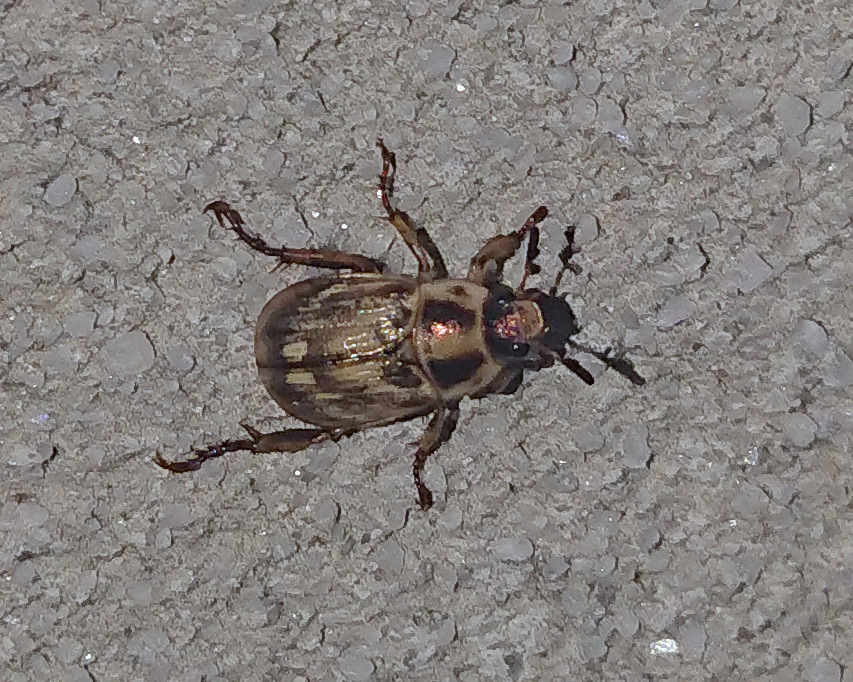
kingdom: Animalia
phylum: Arthropoda
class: Insecta
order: Coleoptera
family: Scarabaeidae
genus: Exomala
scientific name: Exomala orientalis
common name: Oriental beetle
